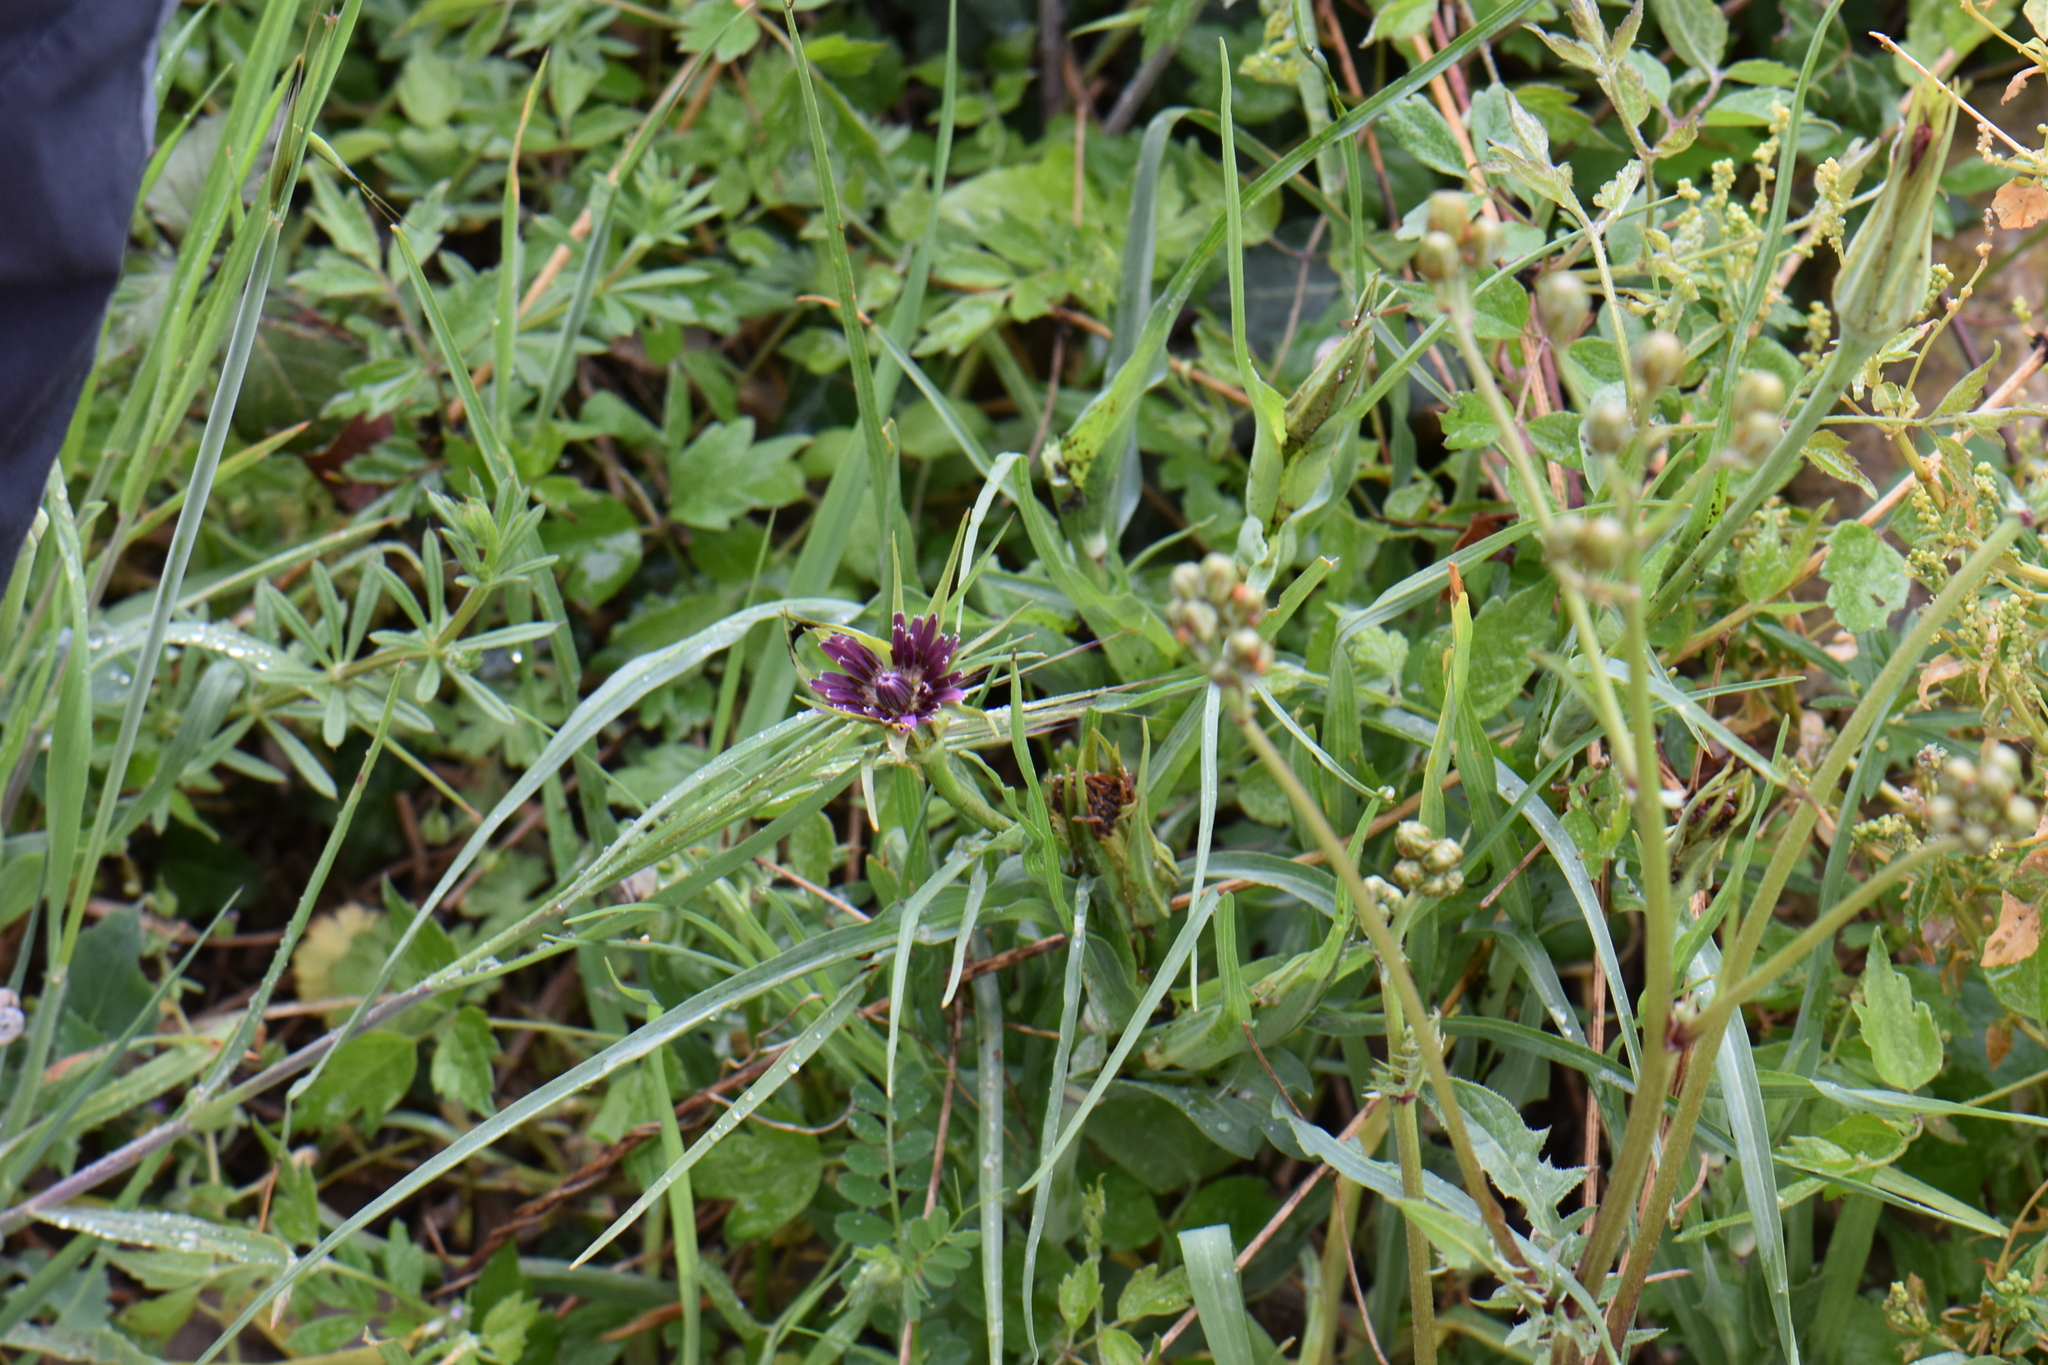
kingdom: Plantae
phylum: Tracheophyta
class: Magnoliopsida
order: Asterales
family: Asteraceae
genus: Tragopogon
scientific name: Tragopogon porrifolius
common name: Salsify
